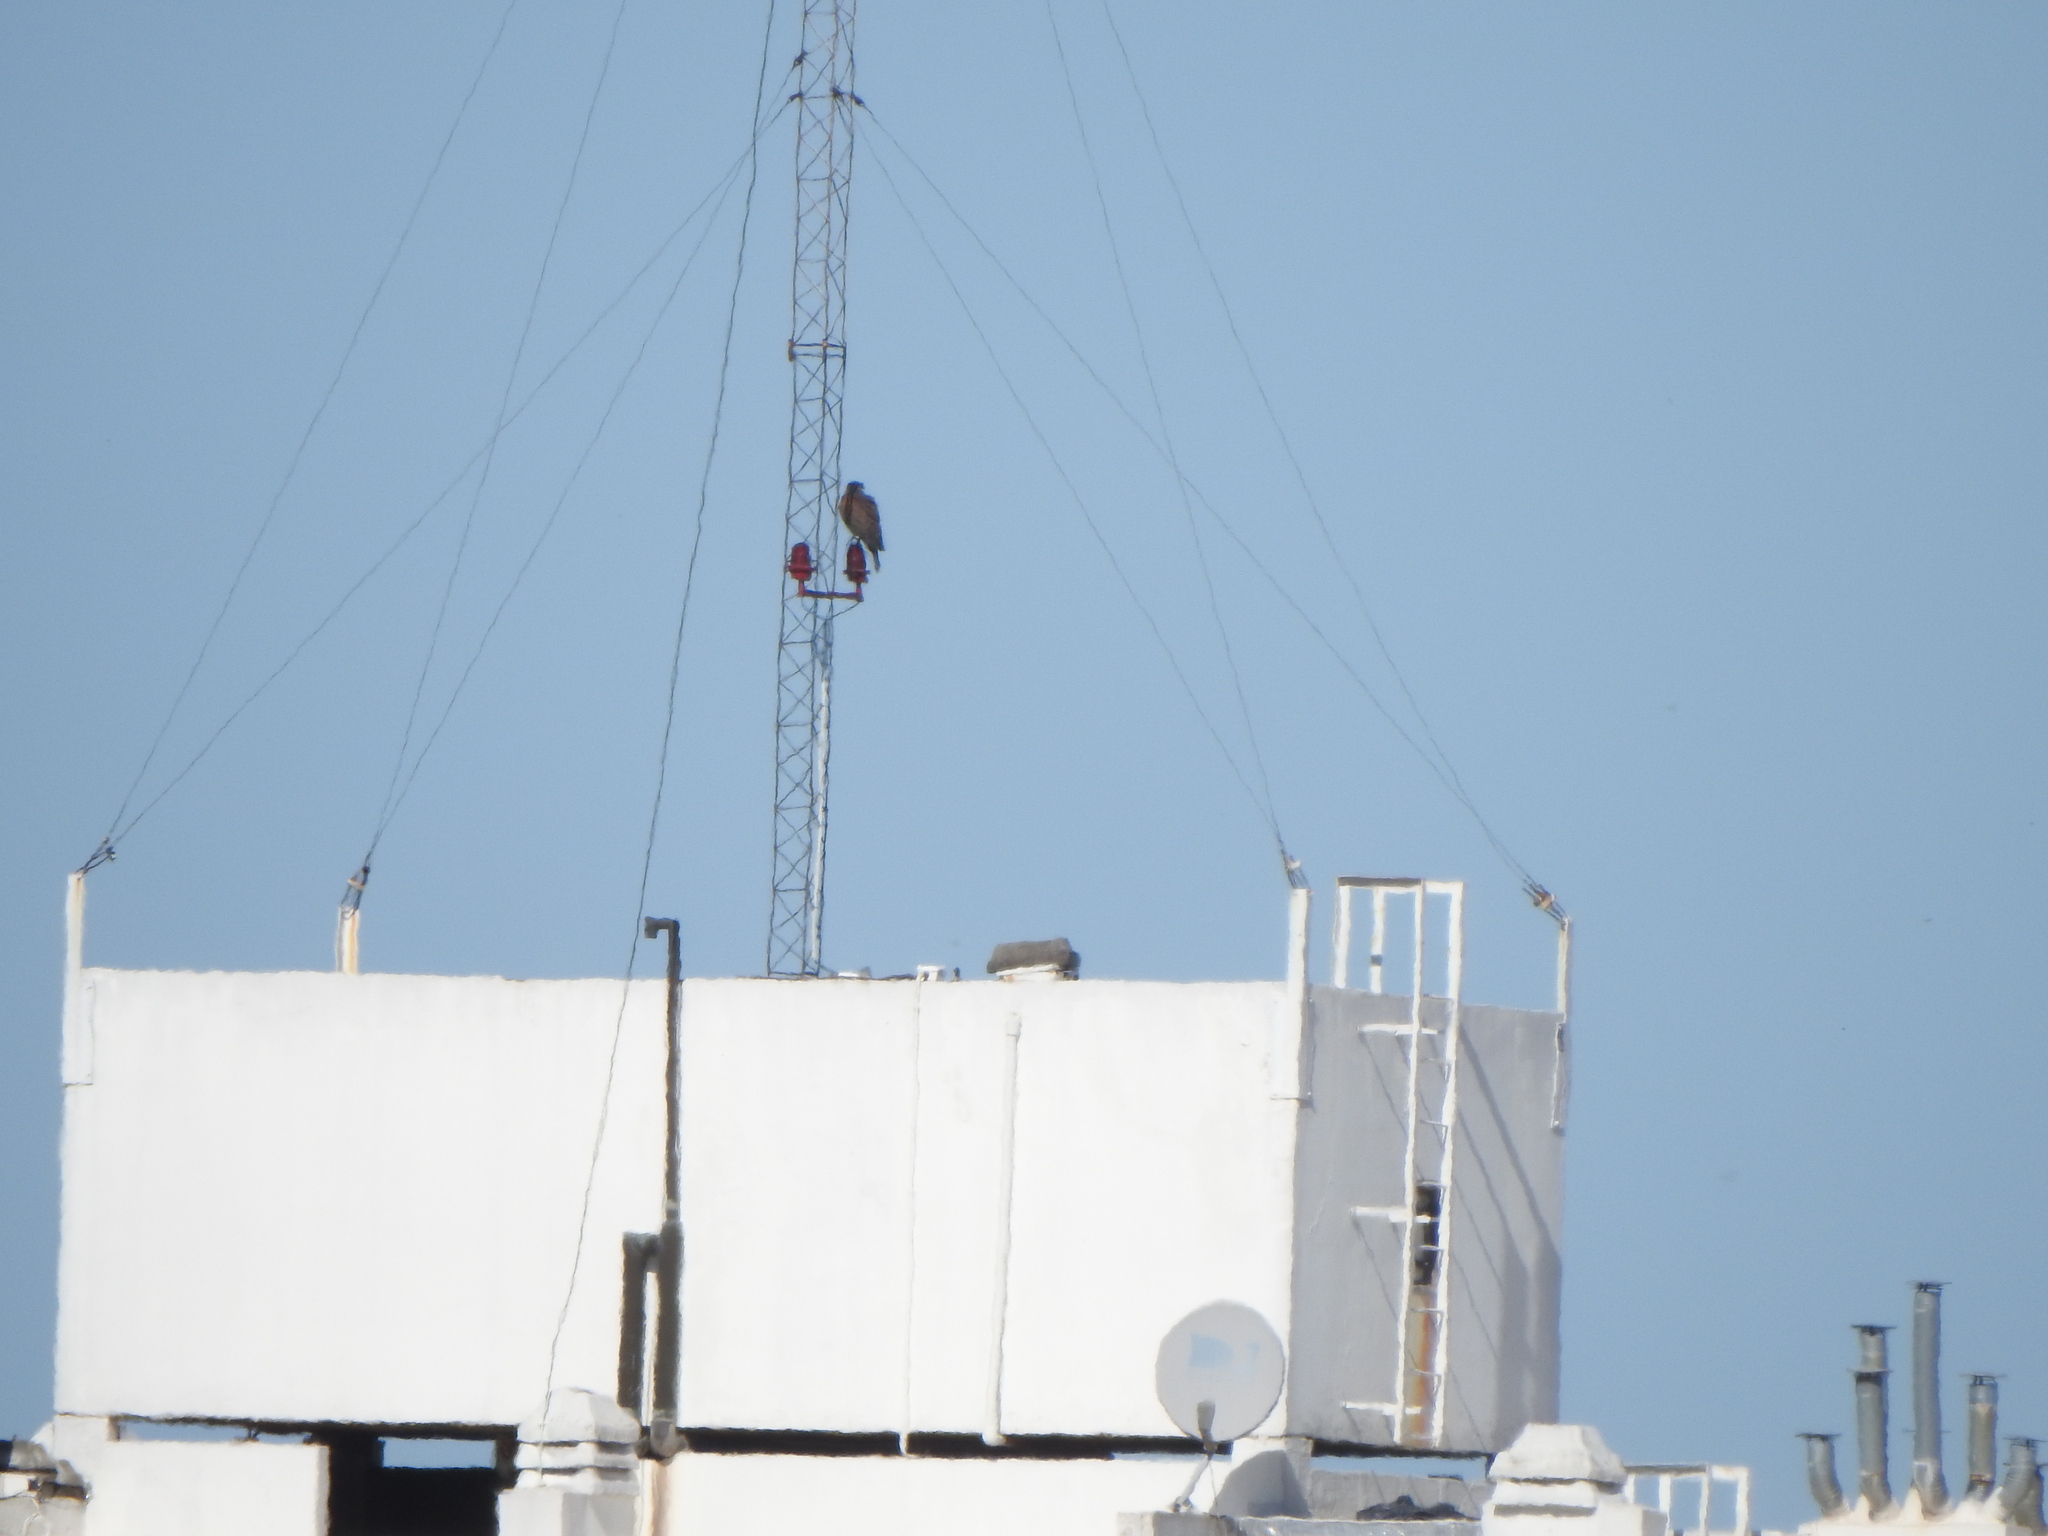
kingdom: Animalia
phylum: Chordata
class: Aves
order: Accipitriformes
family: Accipitridae
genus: Parabuteo
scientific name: Parabuteo unicinctus
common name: Harris's hawk
